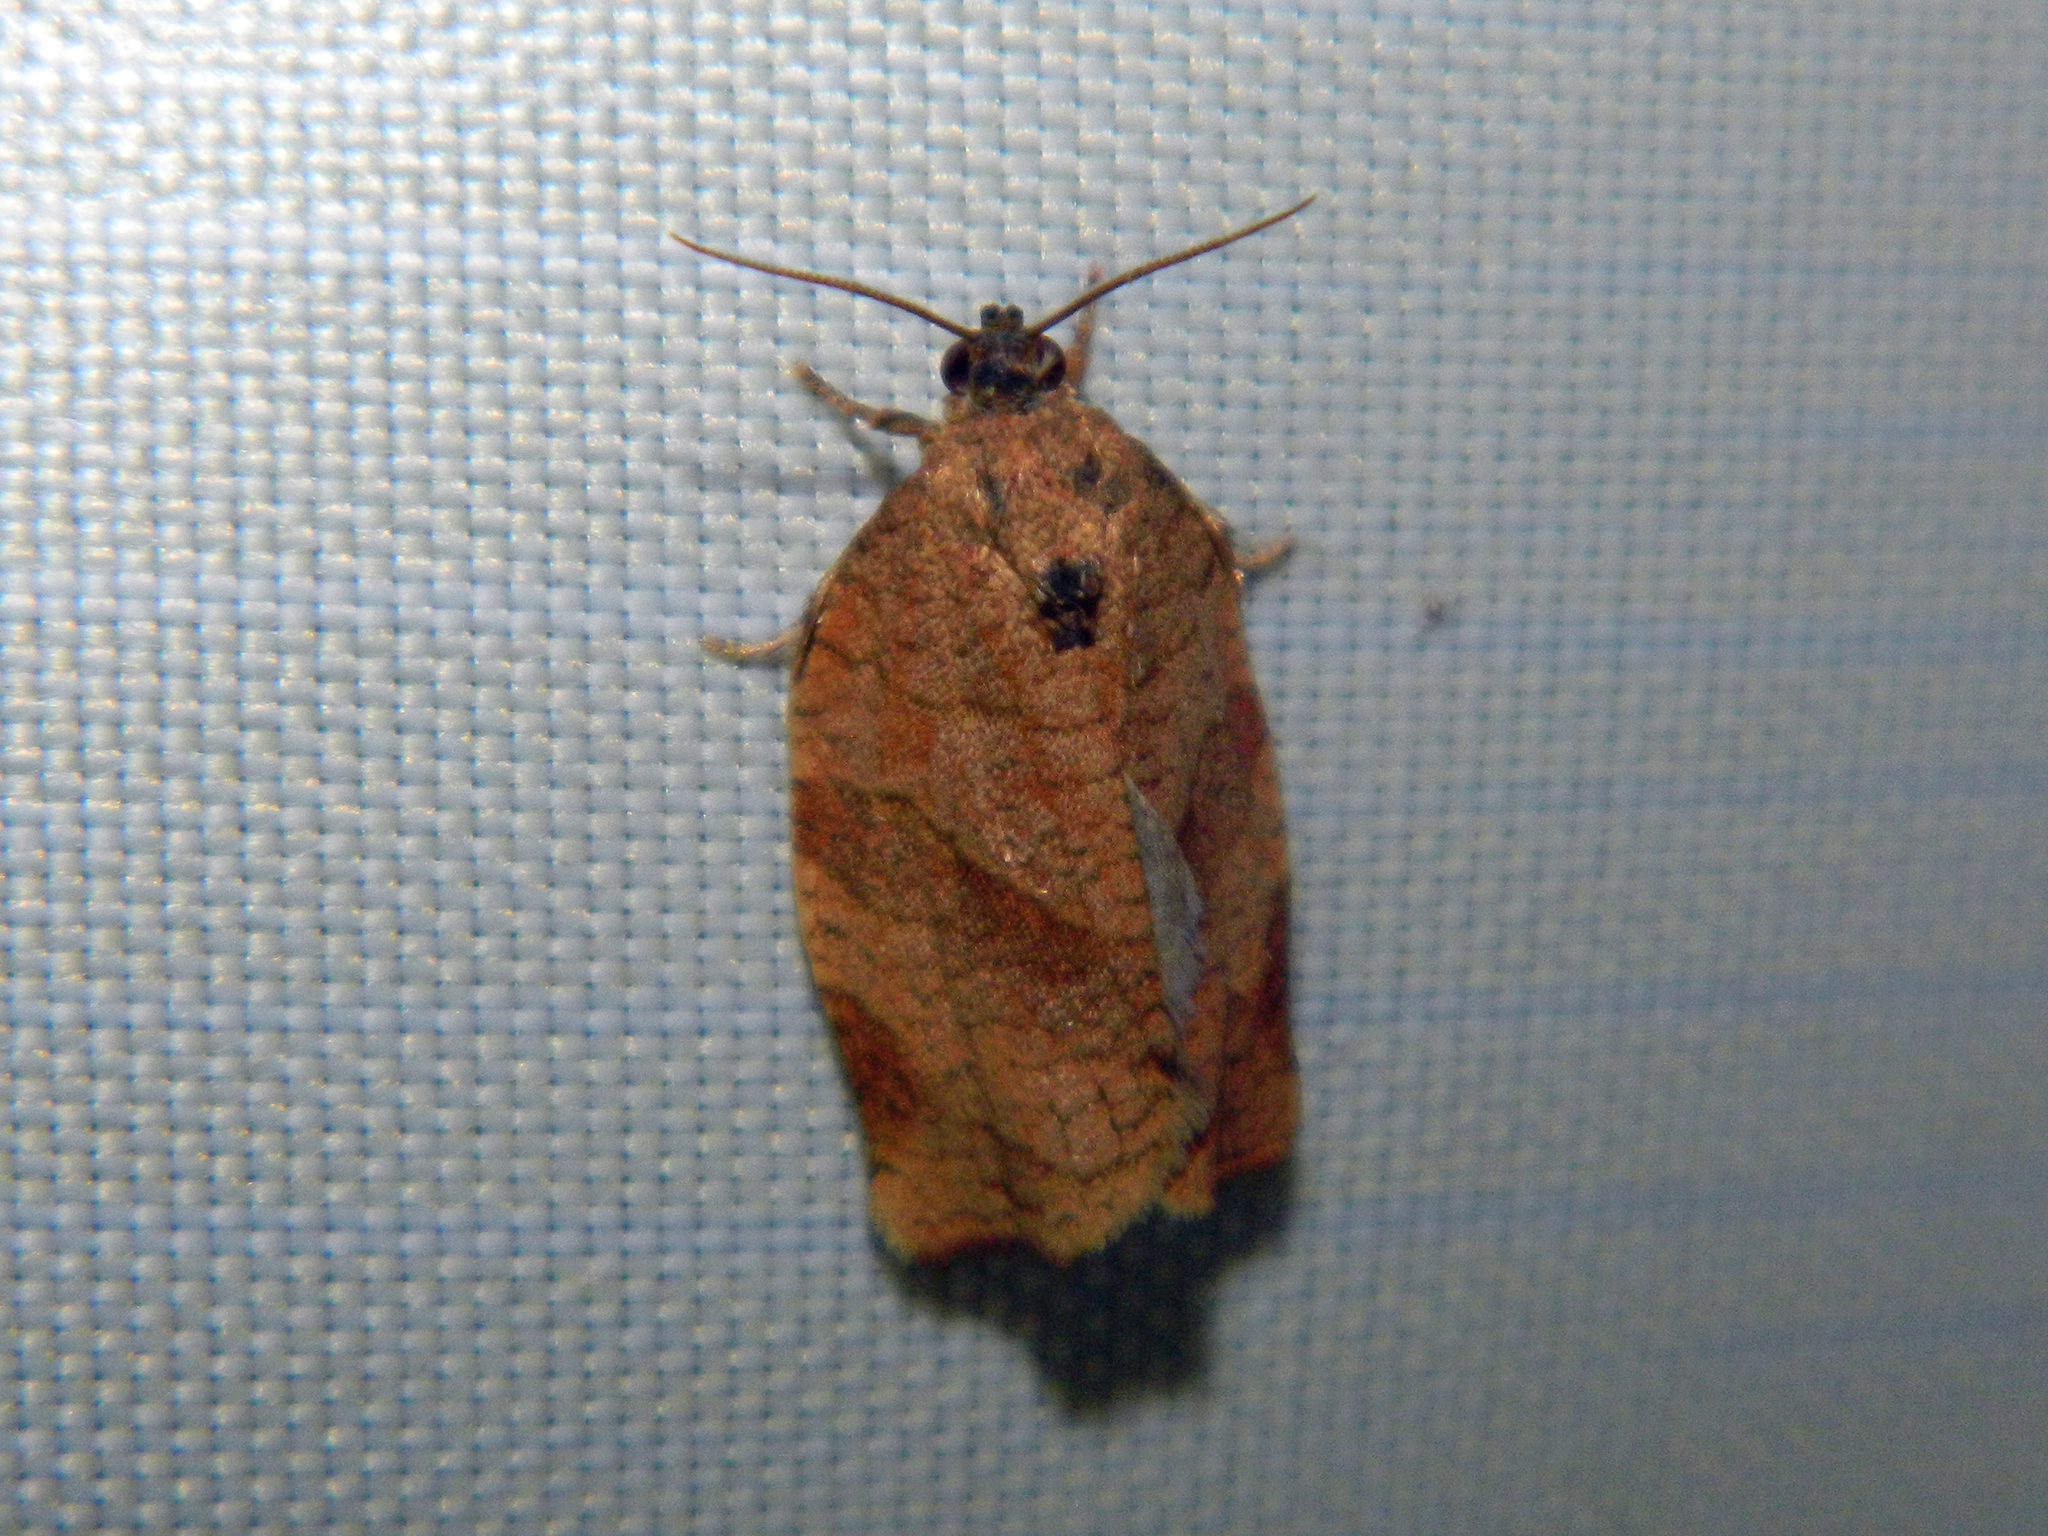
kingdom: Animalia
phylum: Arthropoda
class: Insecta
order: Lepidoptera
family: Tortricidae
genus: Choristoneura
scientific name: Choristoneura rosaceana
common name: Oblique-banded leafroller moth
